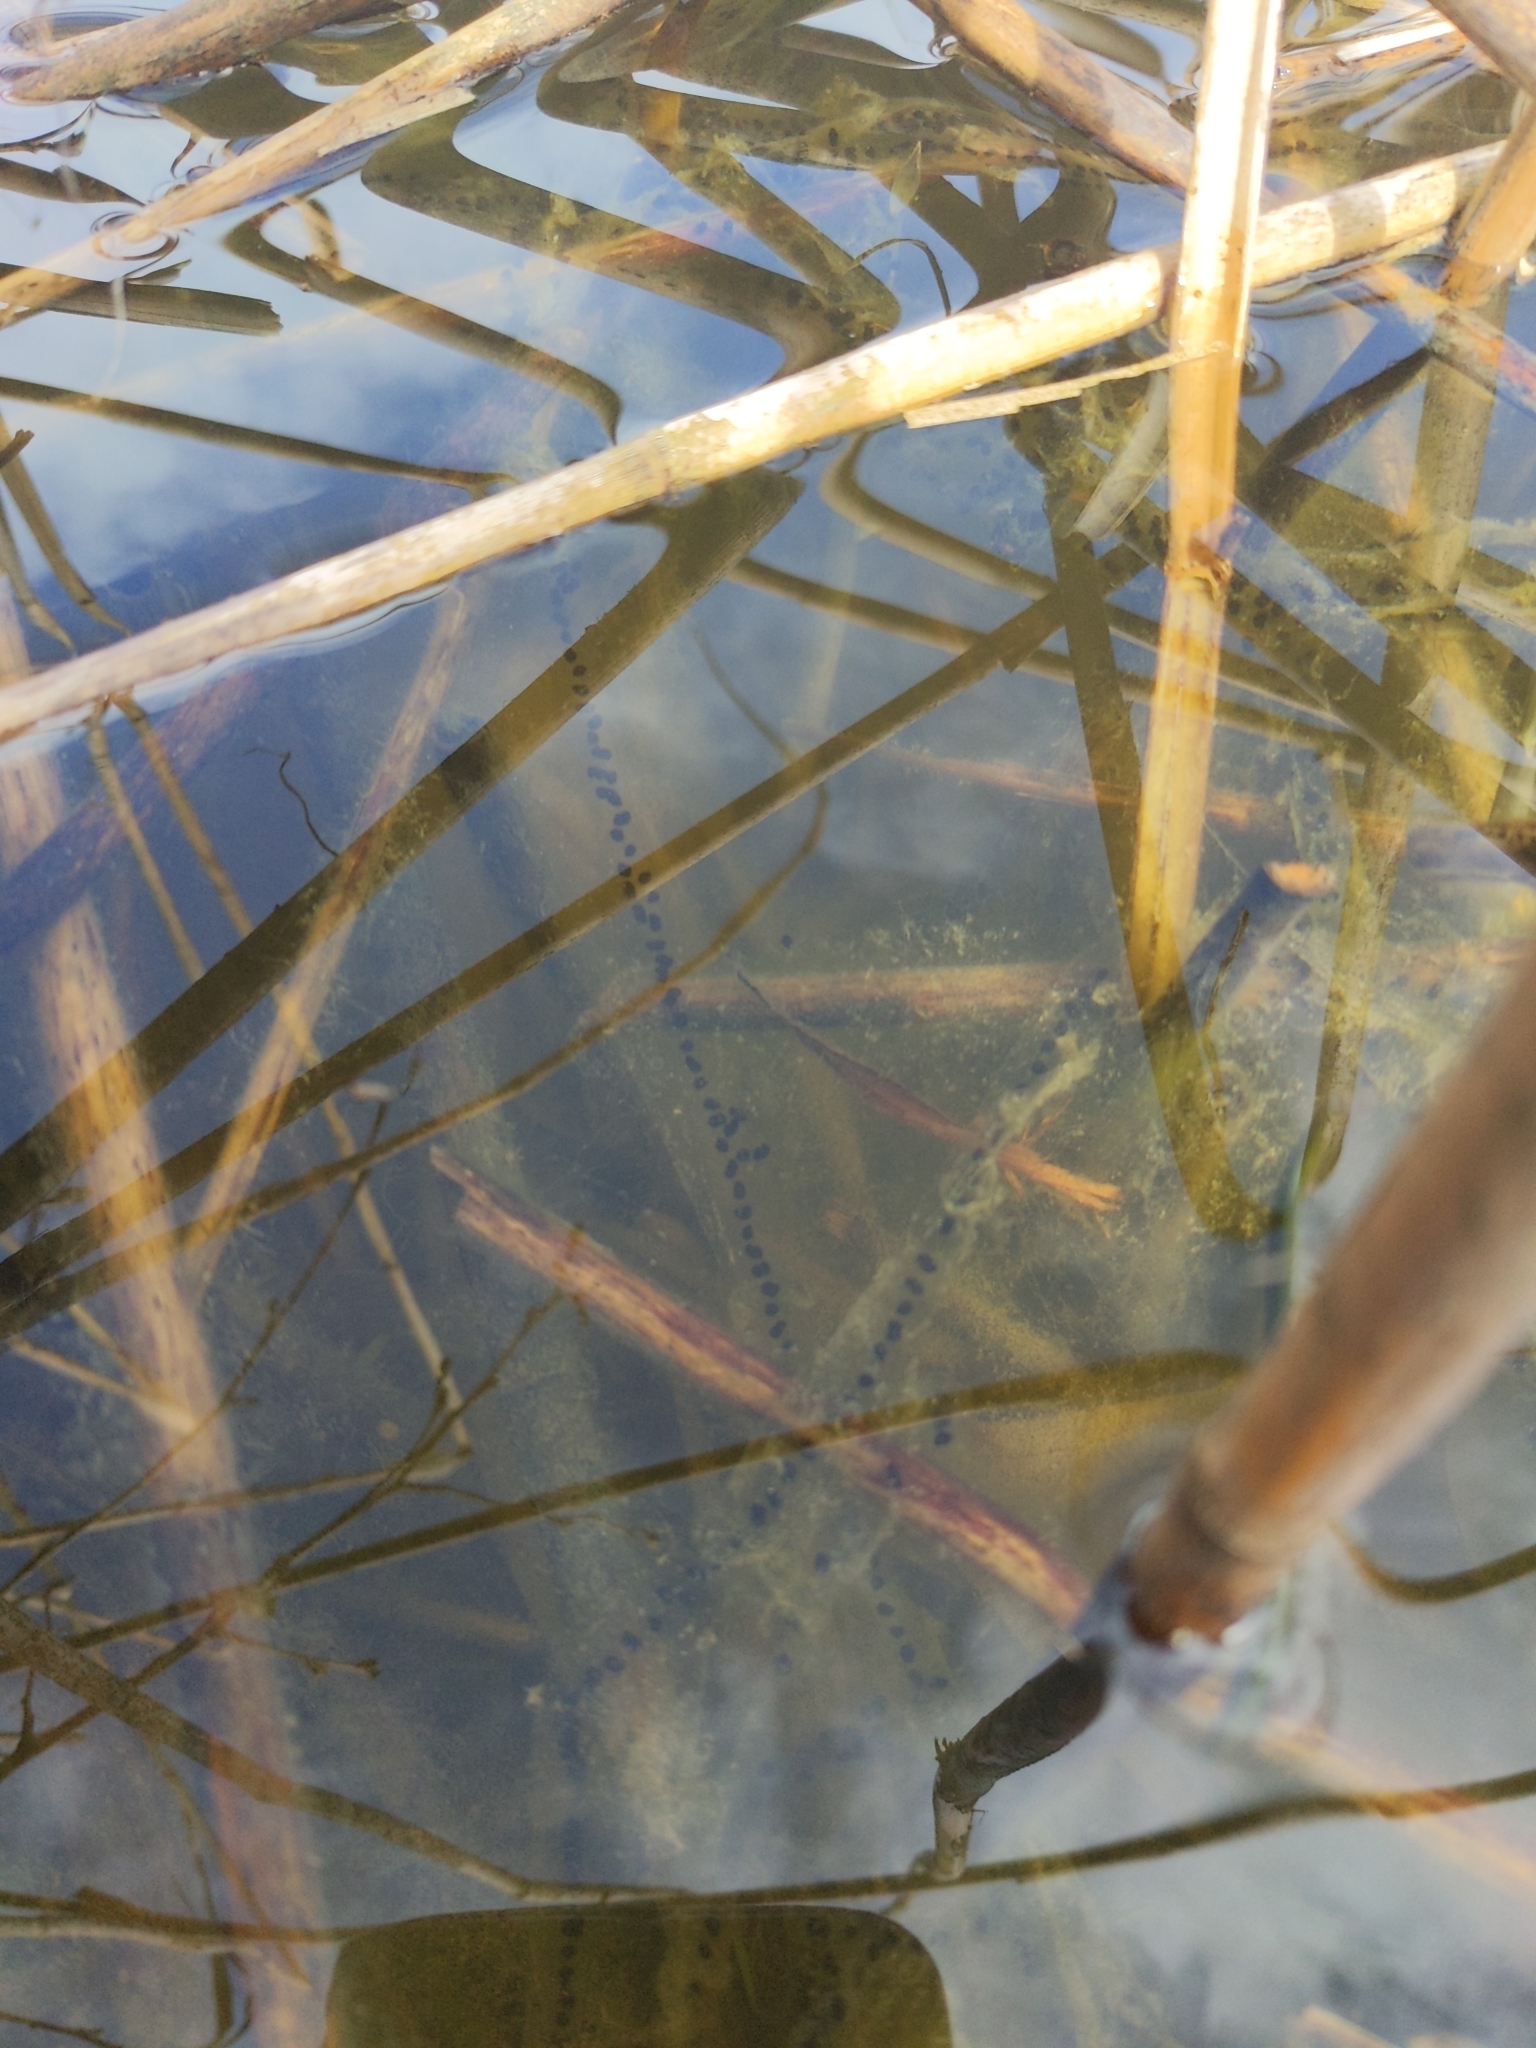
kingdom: Animalia
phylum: Chordata
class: Amphibia
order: Anura
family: Bufonidae
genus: Bufo
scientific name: Bufo bufo
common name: Common toad
